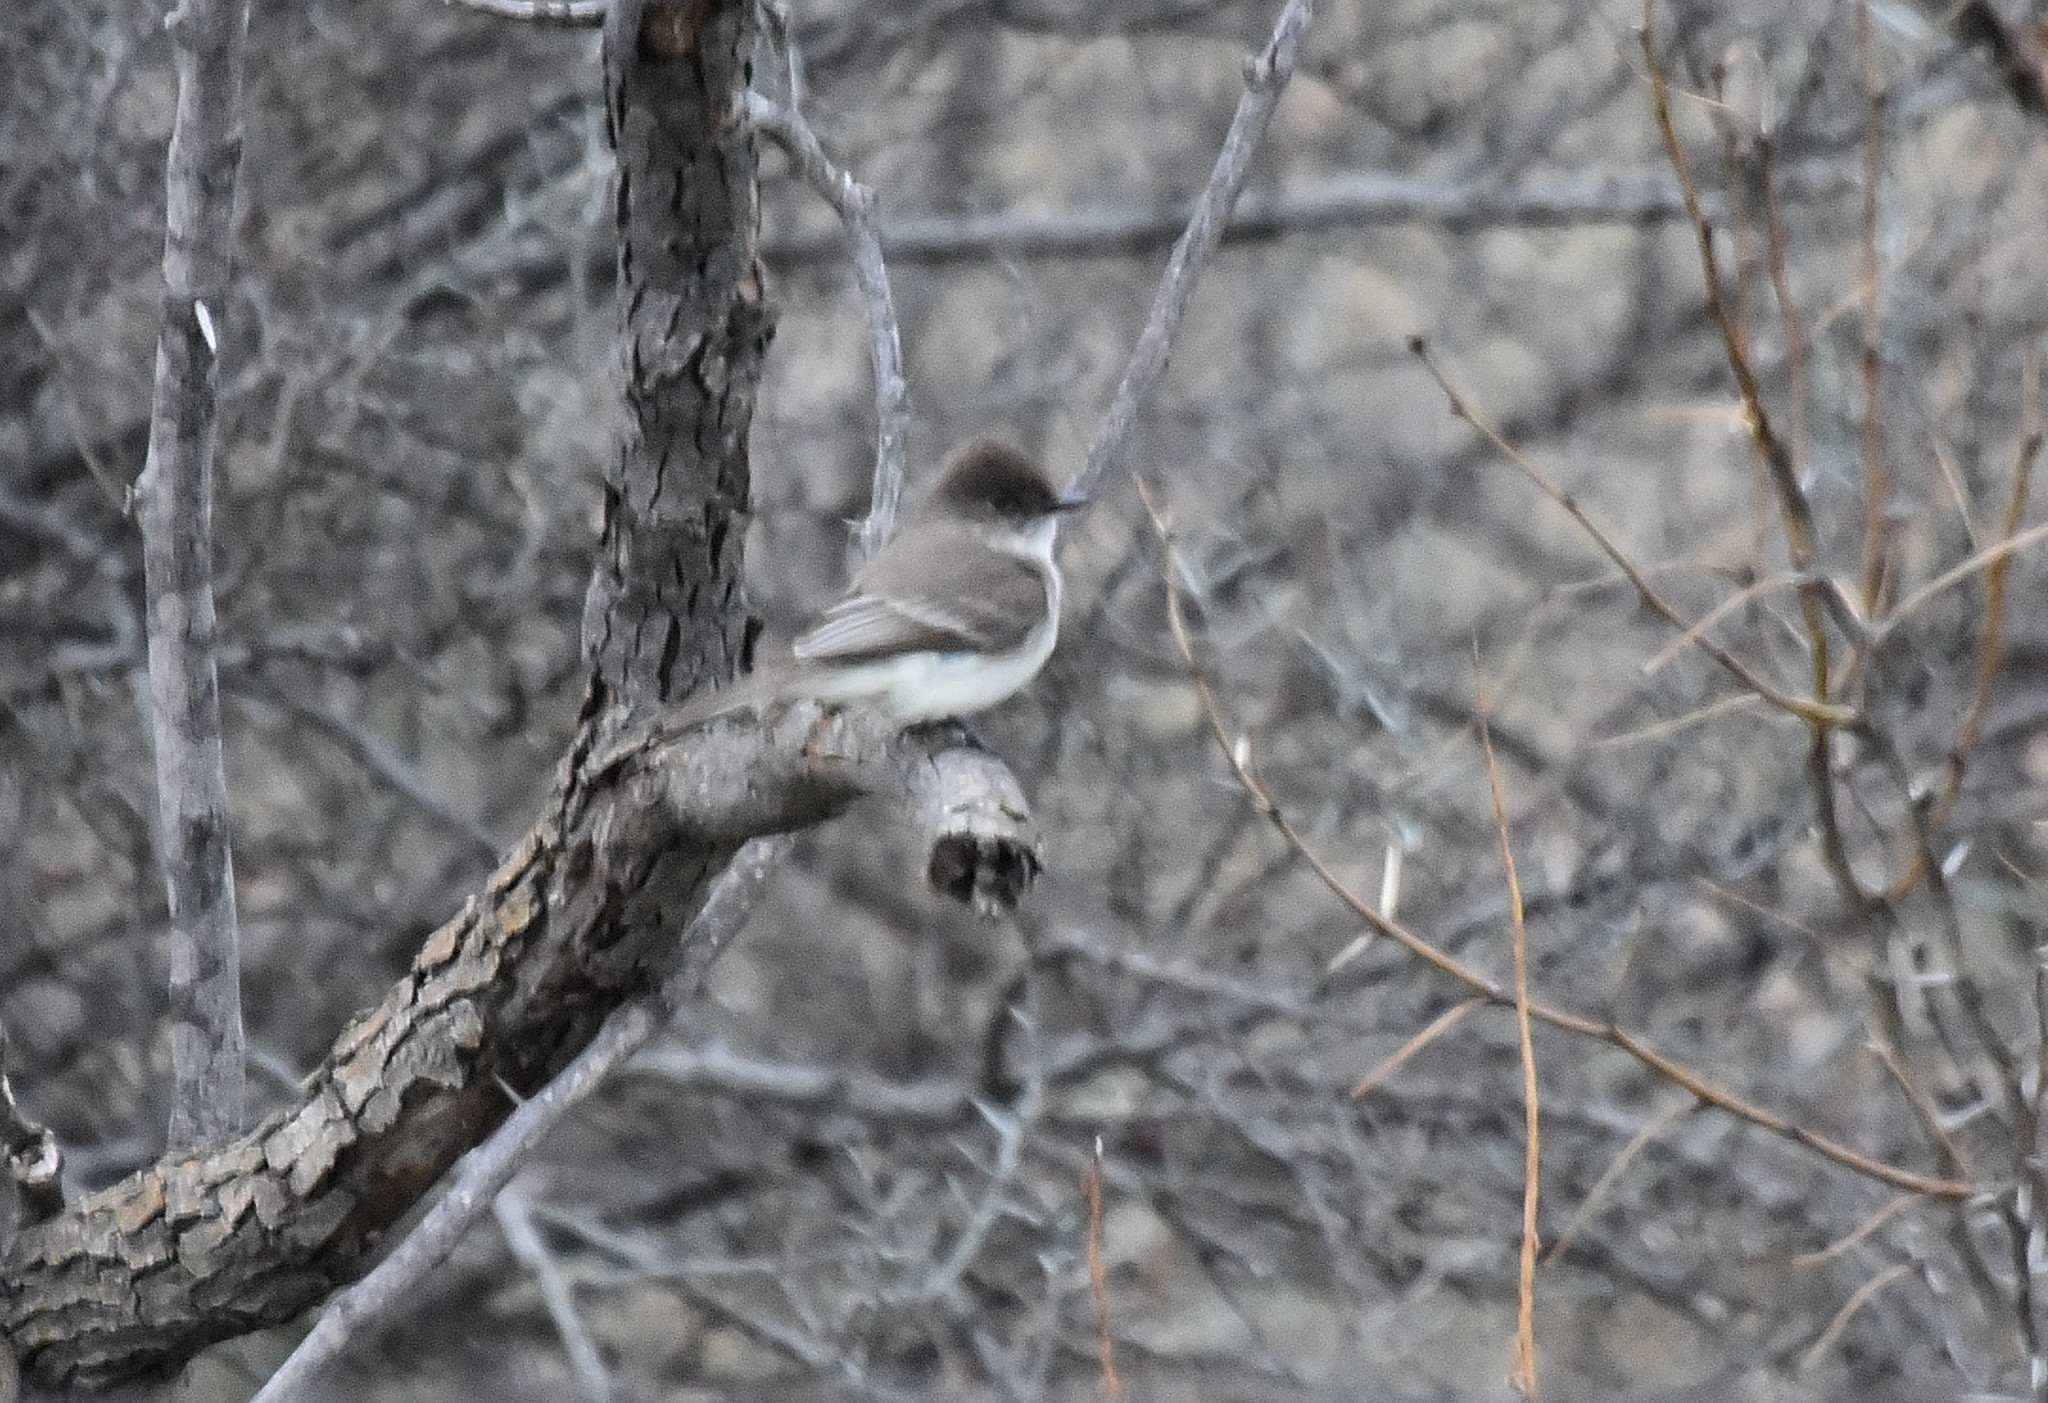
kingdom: Animalia
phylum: Chordata
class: Aves
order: Passeriformes
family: Tyrannidae
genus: Sayornis
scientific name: Sayornis phoebe
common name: Eastern phoebe
